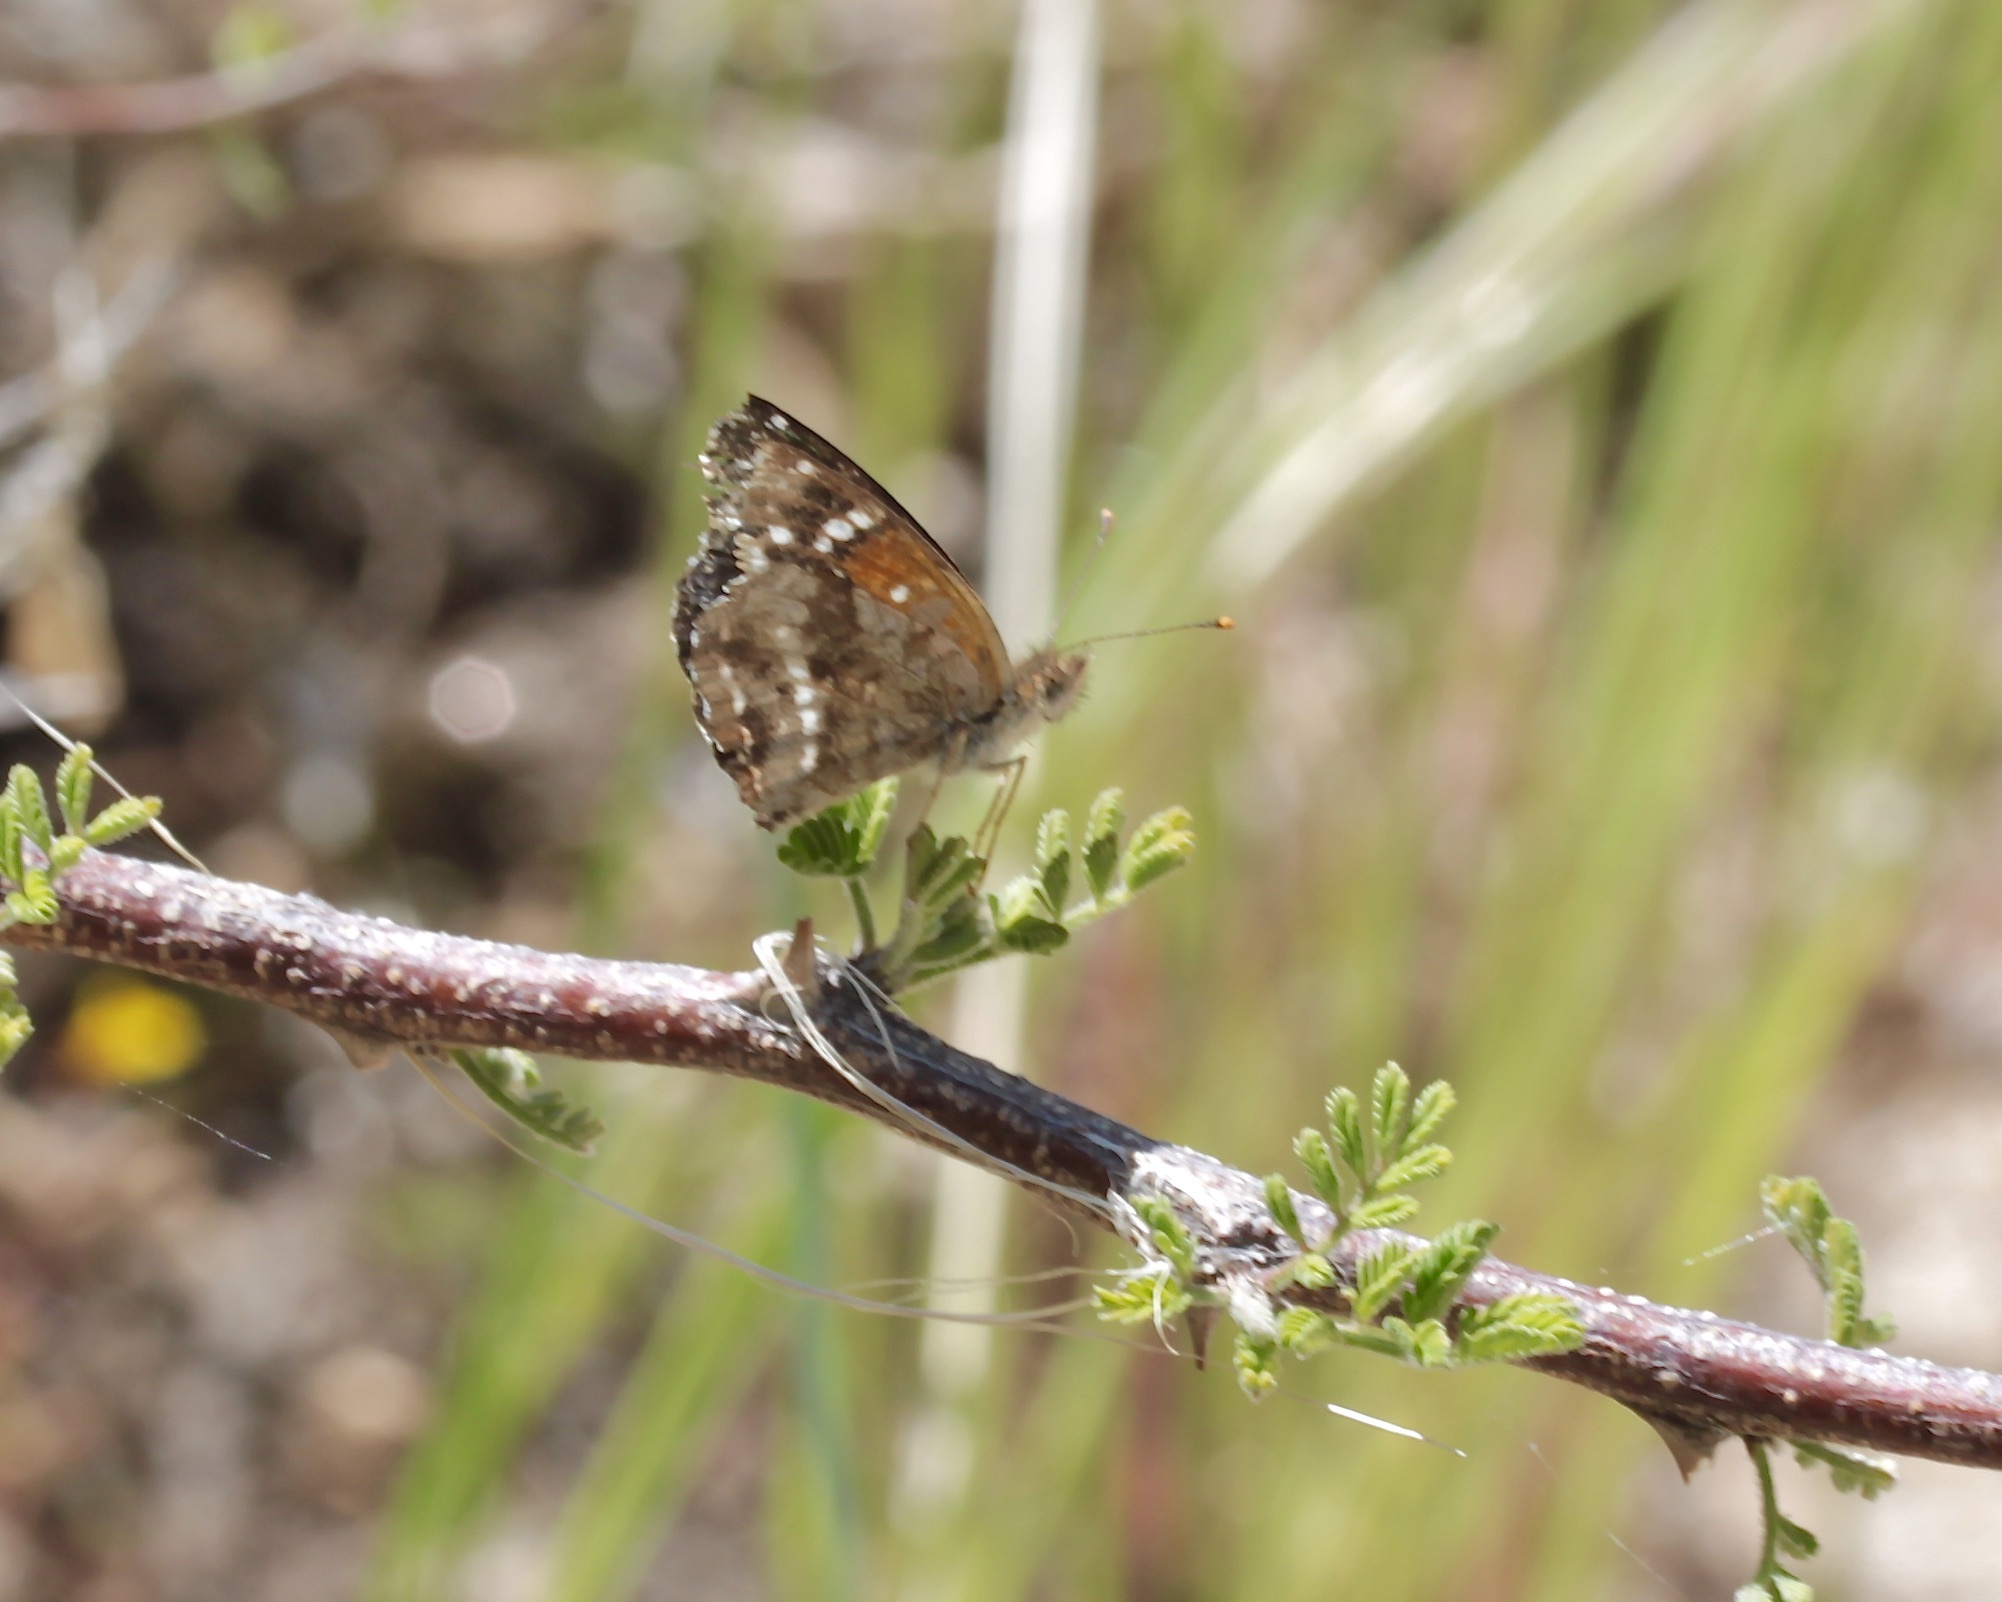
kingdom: Animalia
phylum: Arthropoda
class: Insecta
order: Lepidoptera
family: Nymphalidae
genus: Anthanassa
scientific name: Anthanassa texana
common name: Texan crescent
